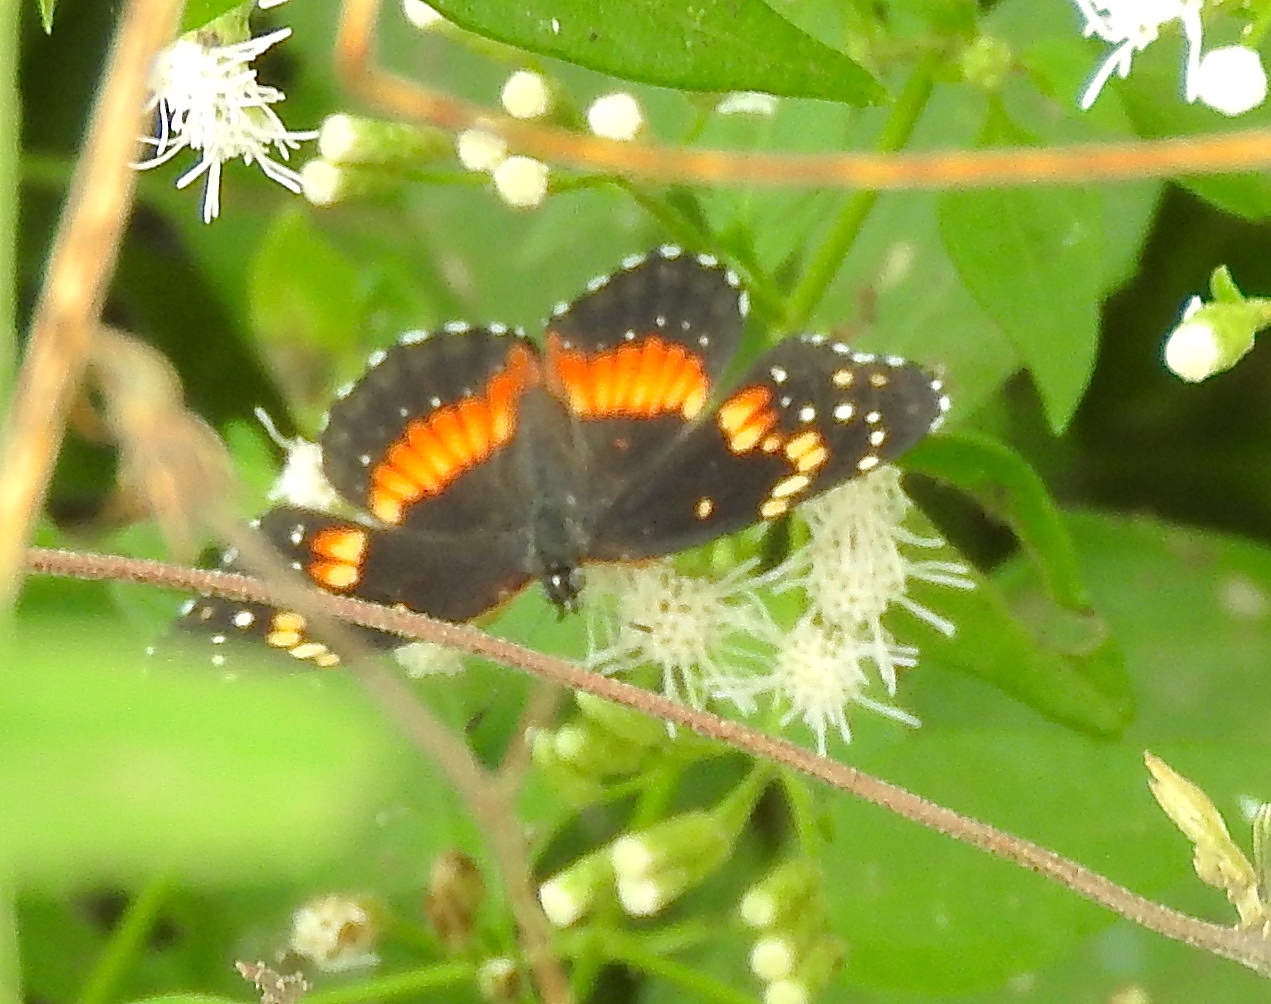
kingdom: Animalia
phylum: Arthropoda
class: Insecta
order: Lepidoptera
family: Nymphalidae
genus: Chlosyne
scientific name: Chlosyne lacinia
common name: Bordered patch
